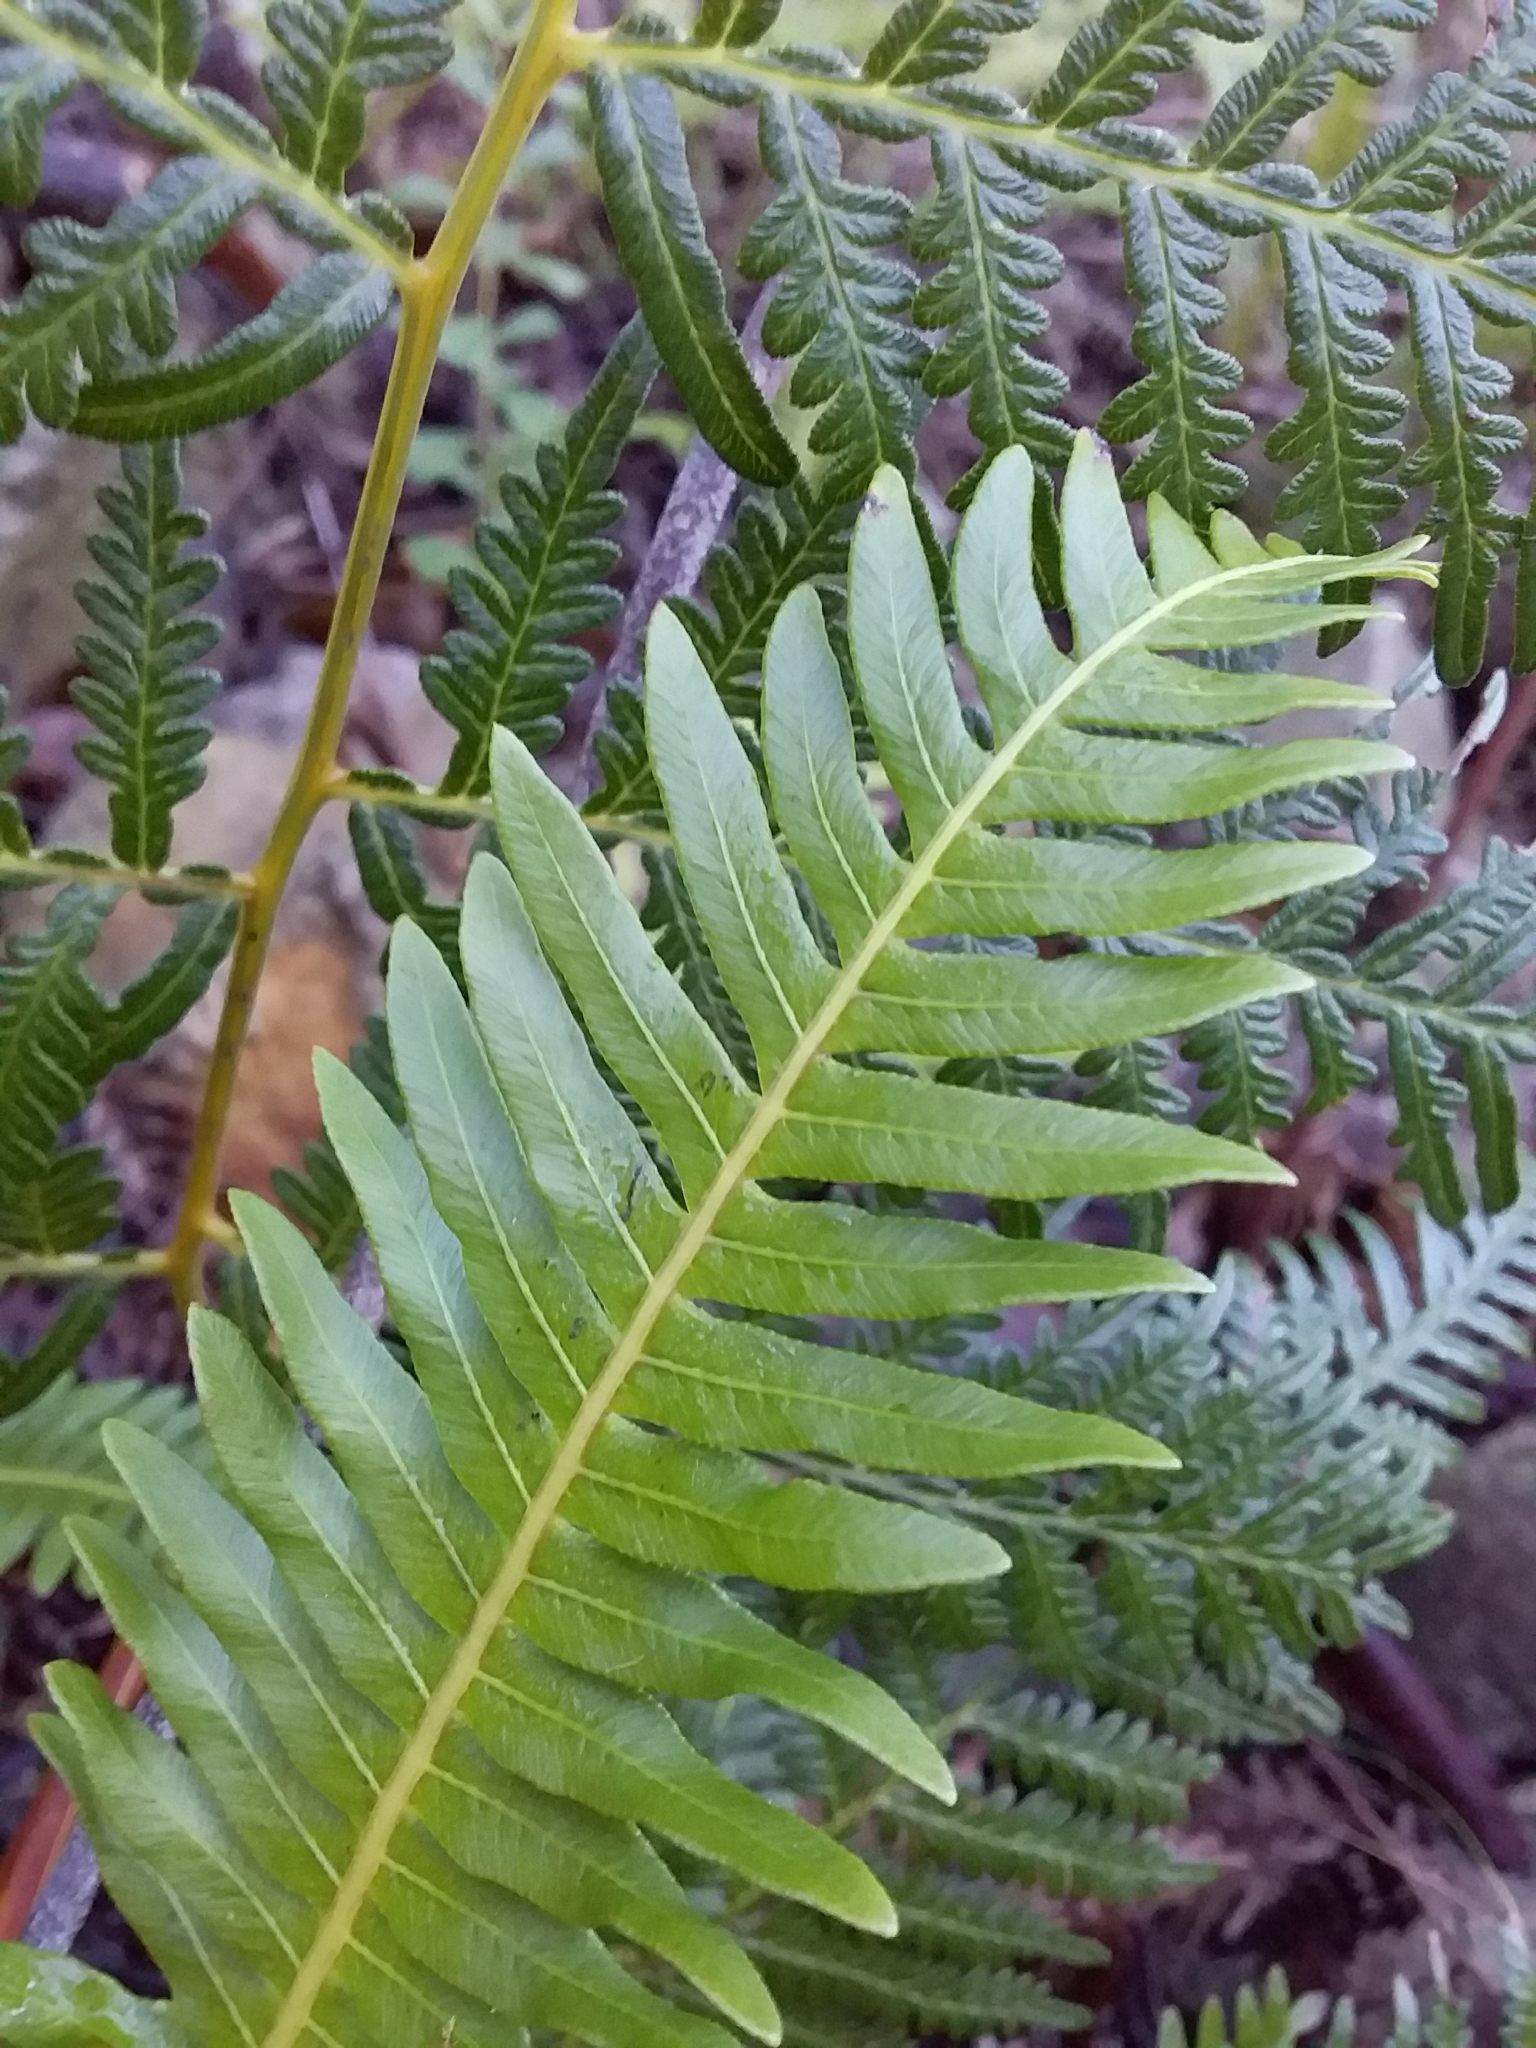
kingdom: Plantae
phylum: Tracheophyta
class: Polypodiopsida
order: Polypodiales
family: Blechnaceae
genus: Lomaria
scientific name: Lomaria nuda
